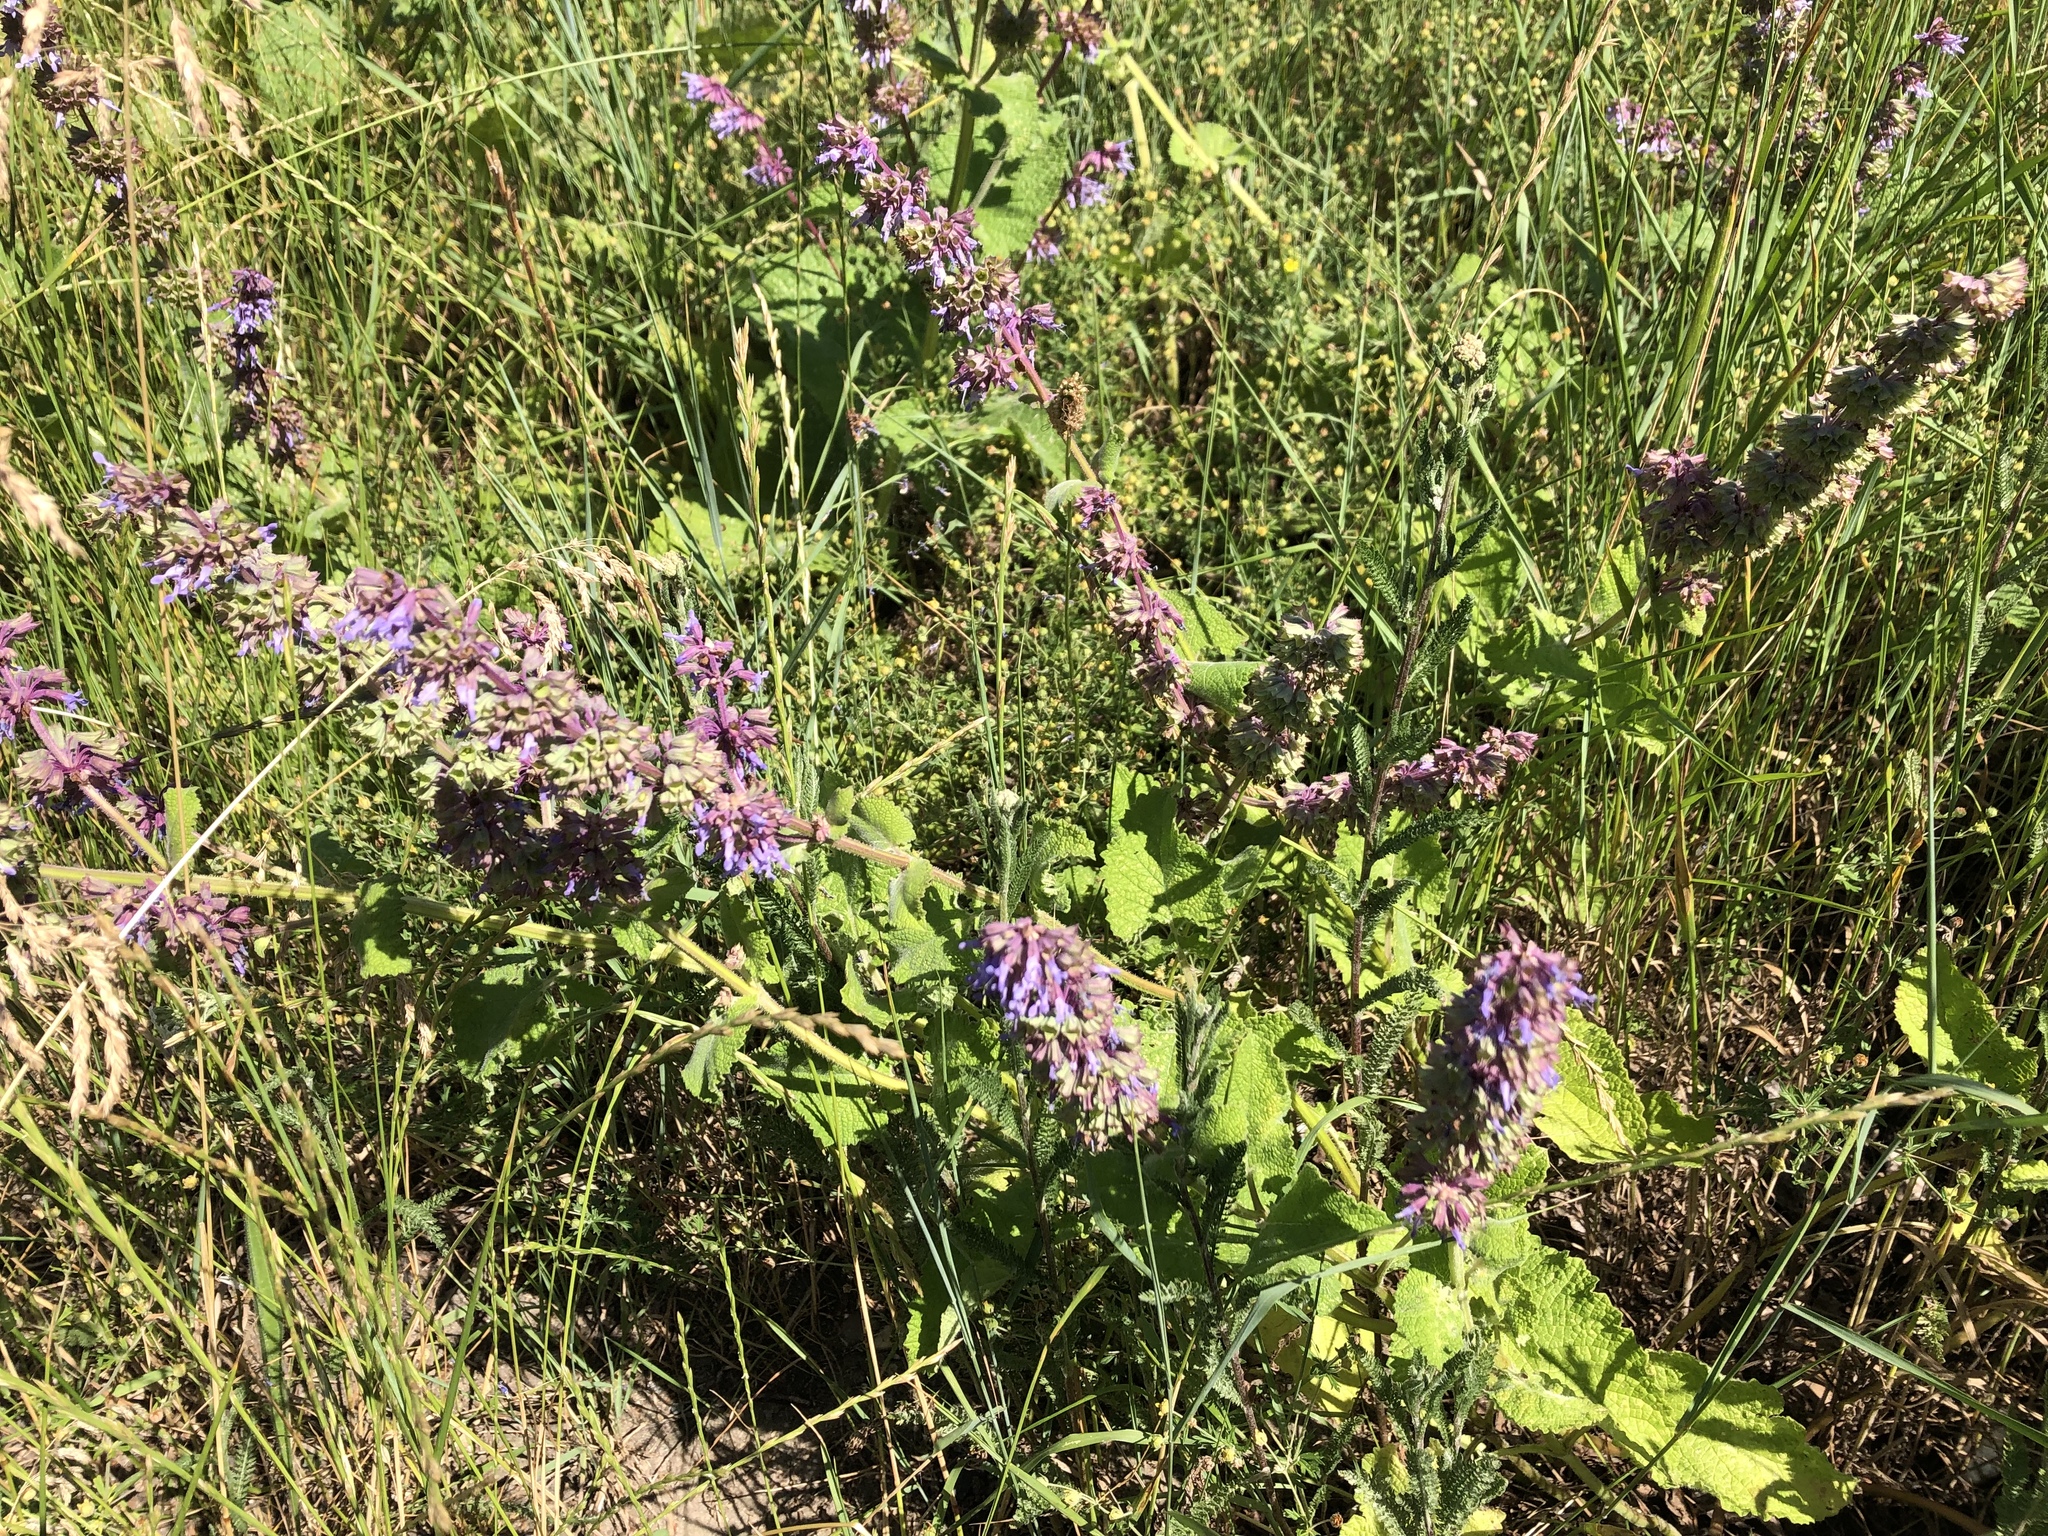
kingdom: Plantae
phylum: Tracheophyta
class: Magnoliopsida
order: Lamiales
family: Lamiaceae
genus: Salvia
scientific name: Salvia verticillata
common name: Whorled clary
